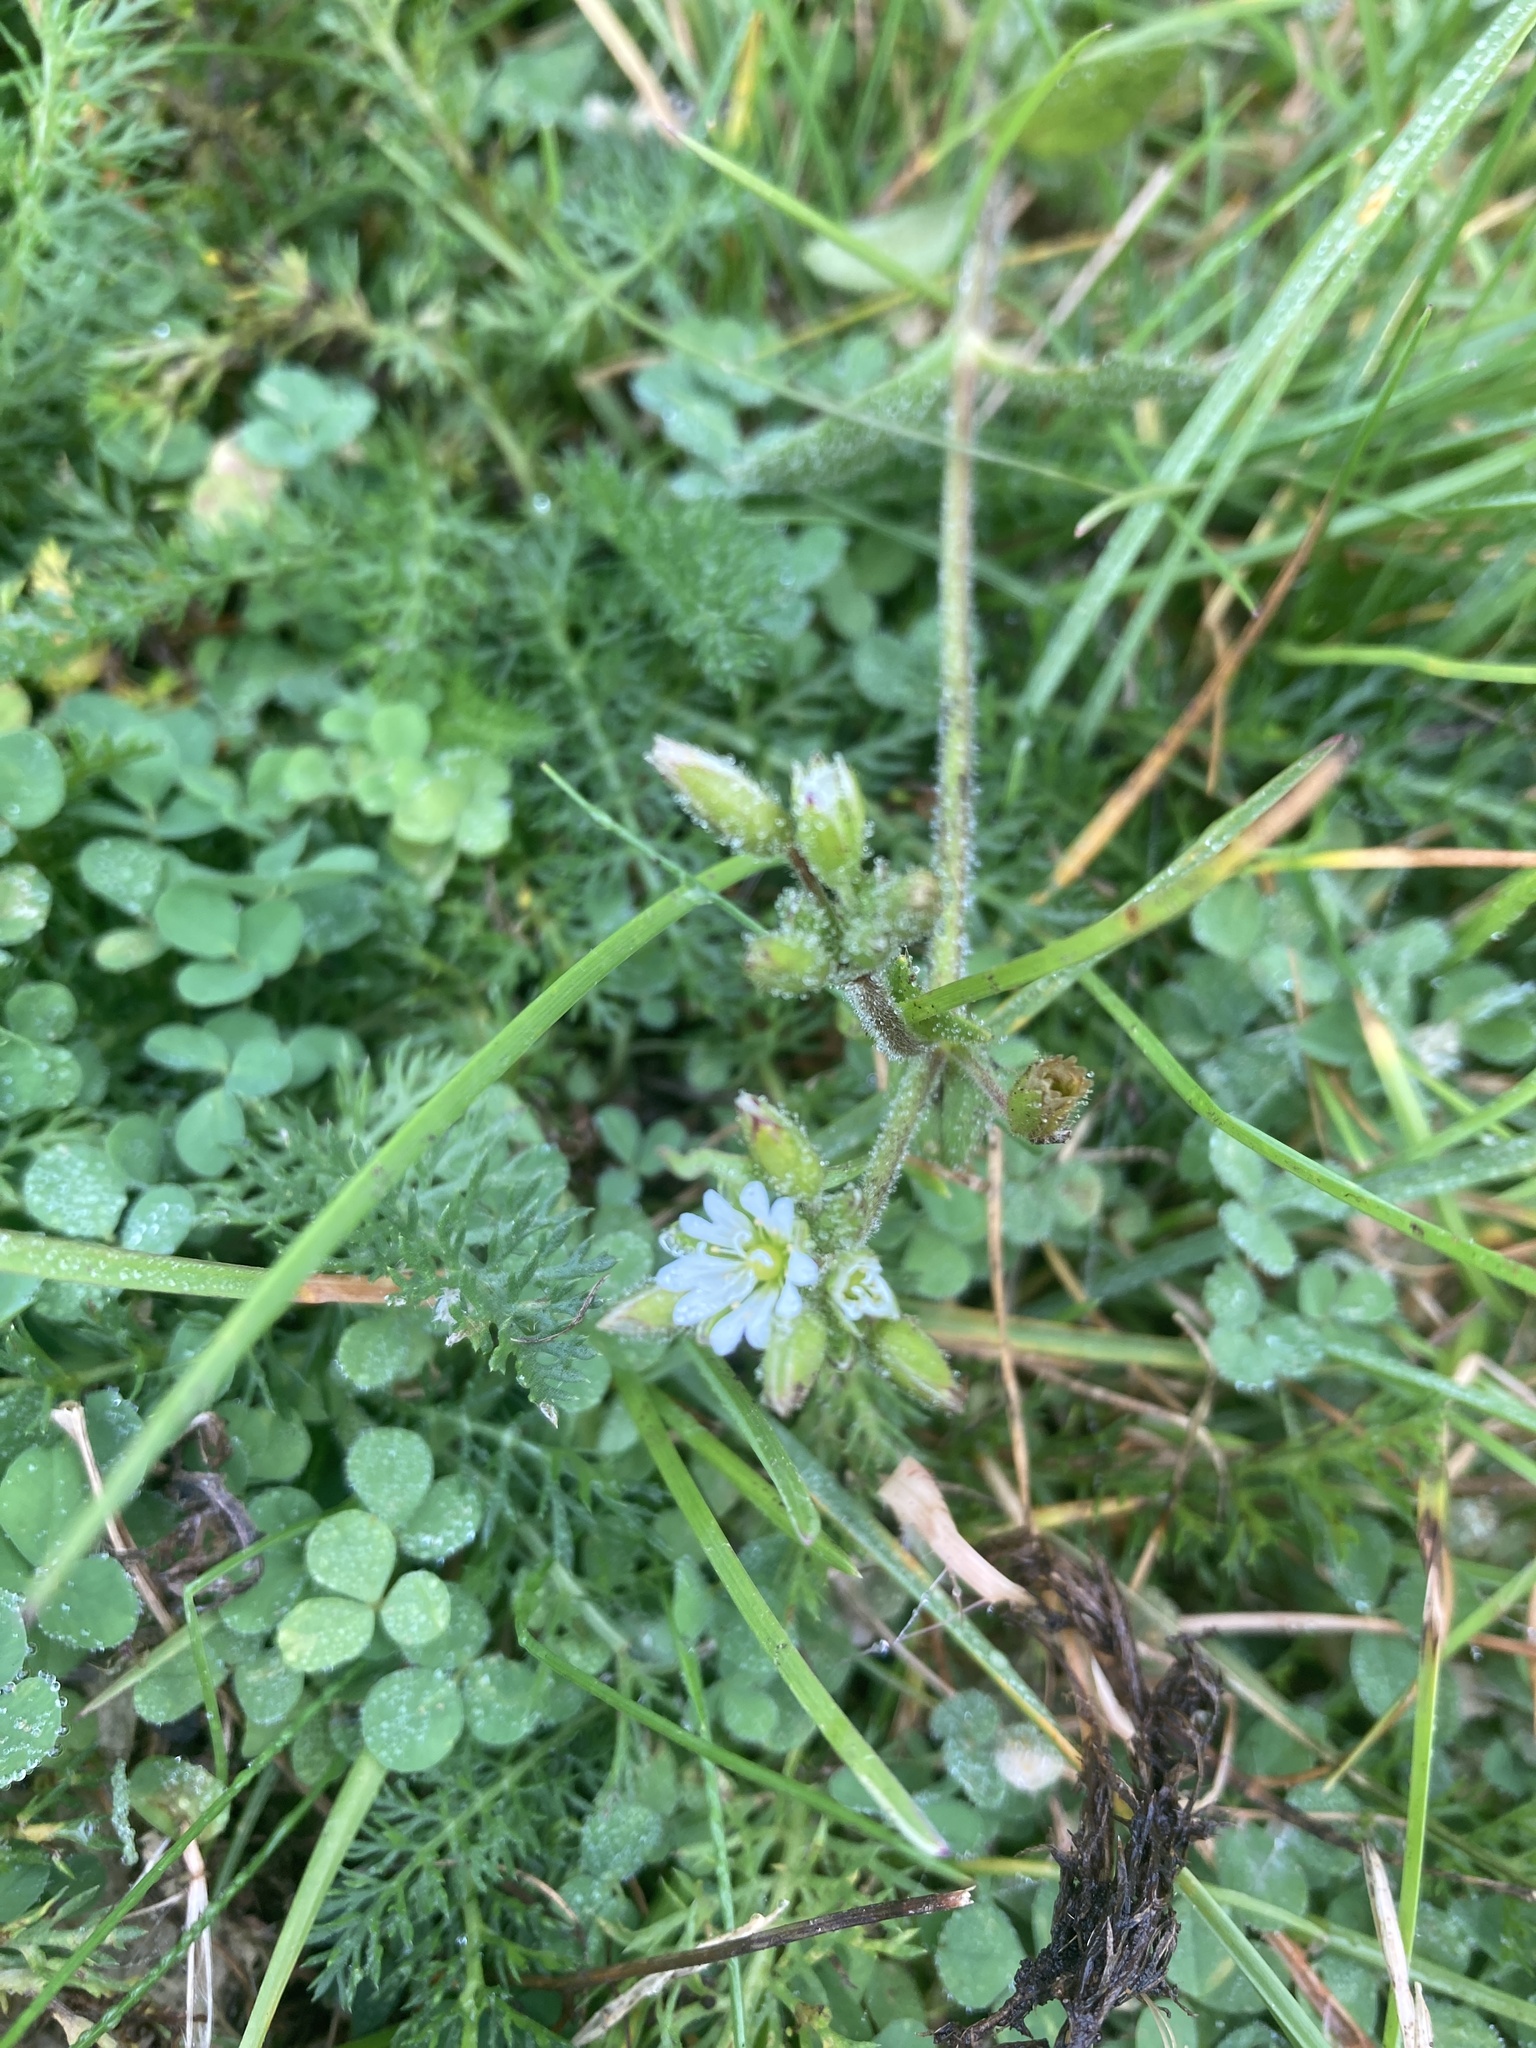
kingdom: Plantae
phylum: Tracheophyta
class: Magnoliopsida
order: Caryophyllales
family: Caryophyllaceae
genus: Cerastium
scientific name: Cerastium fontanum
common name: Common mouse-ear
